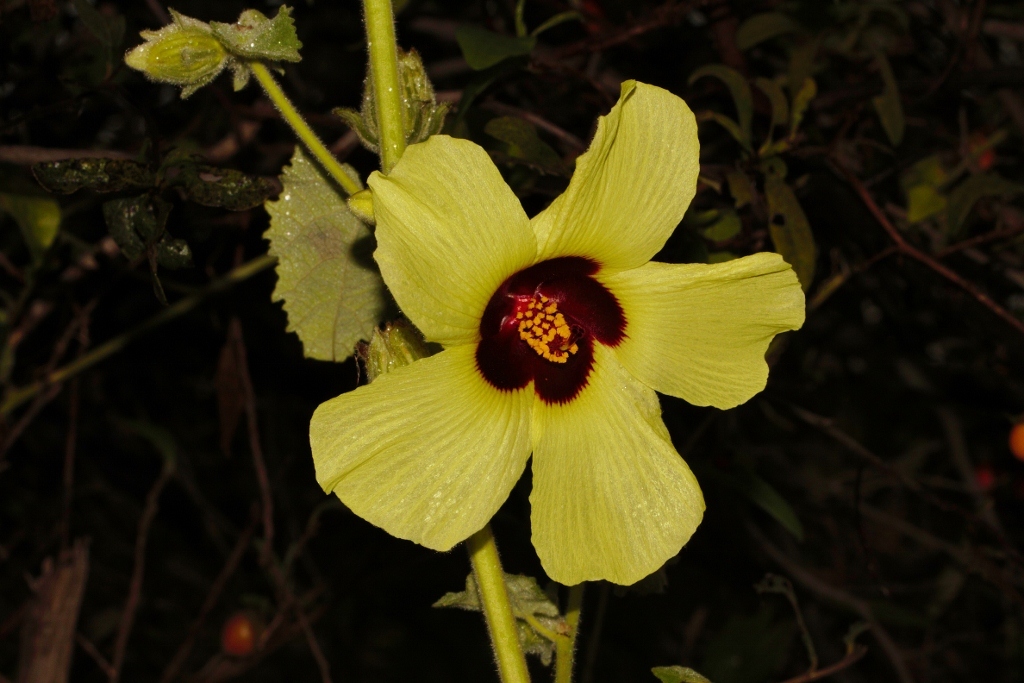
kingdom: Plantae
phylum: Tracheophyta
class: Magnoliopsida
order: Malvales
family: Malvaceae
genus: Hibiscus
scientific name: Hibiscus panduriformis
